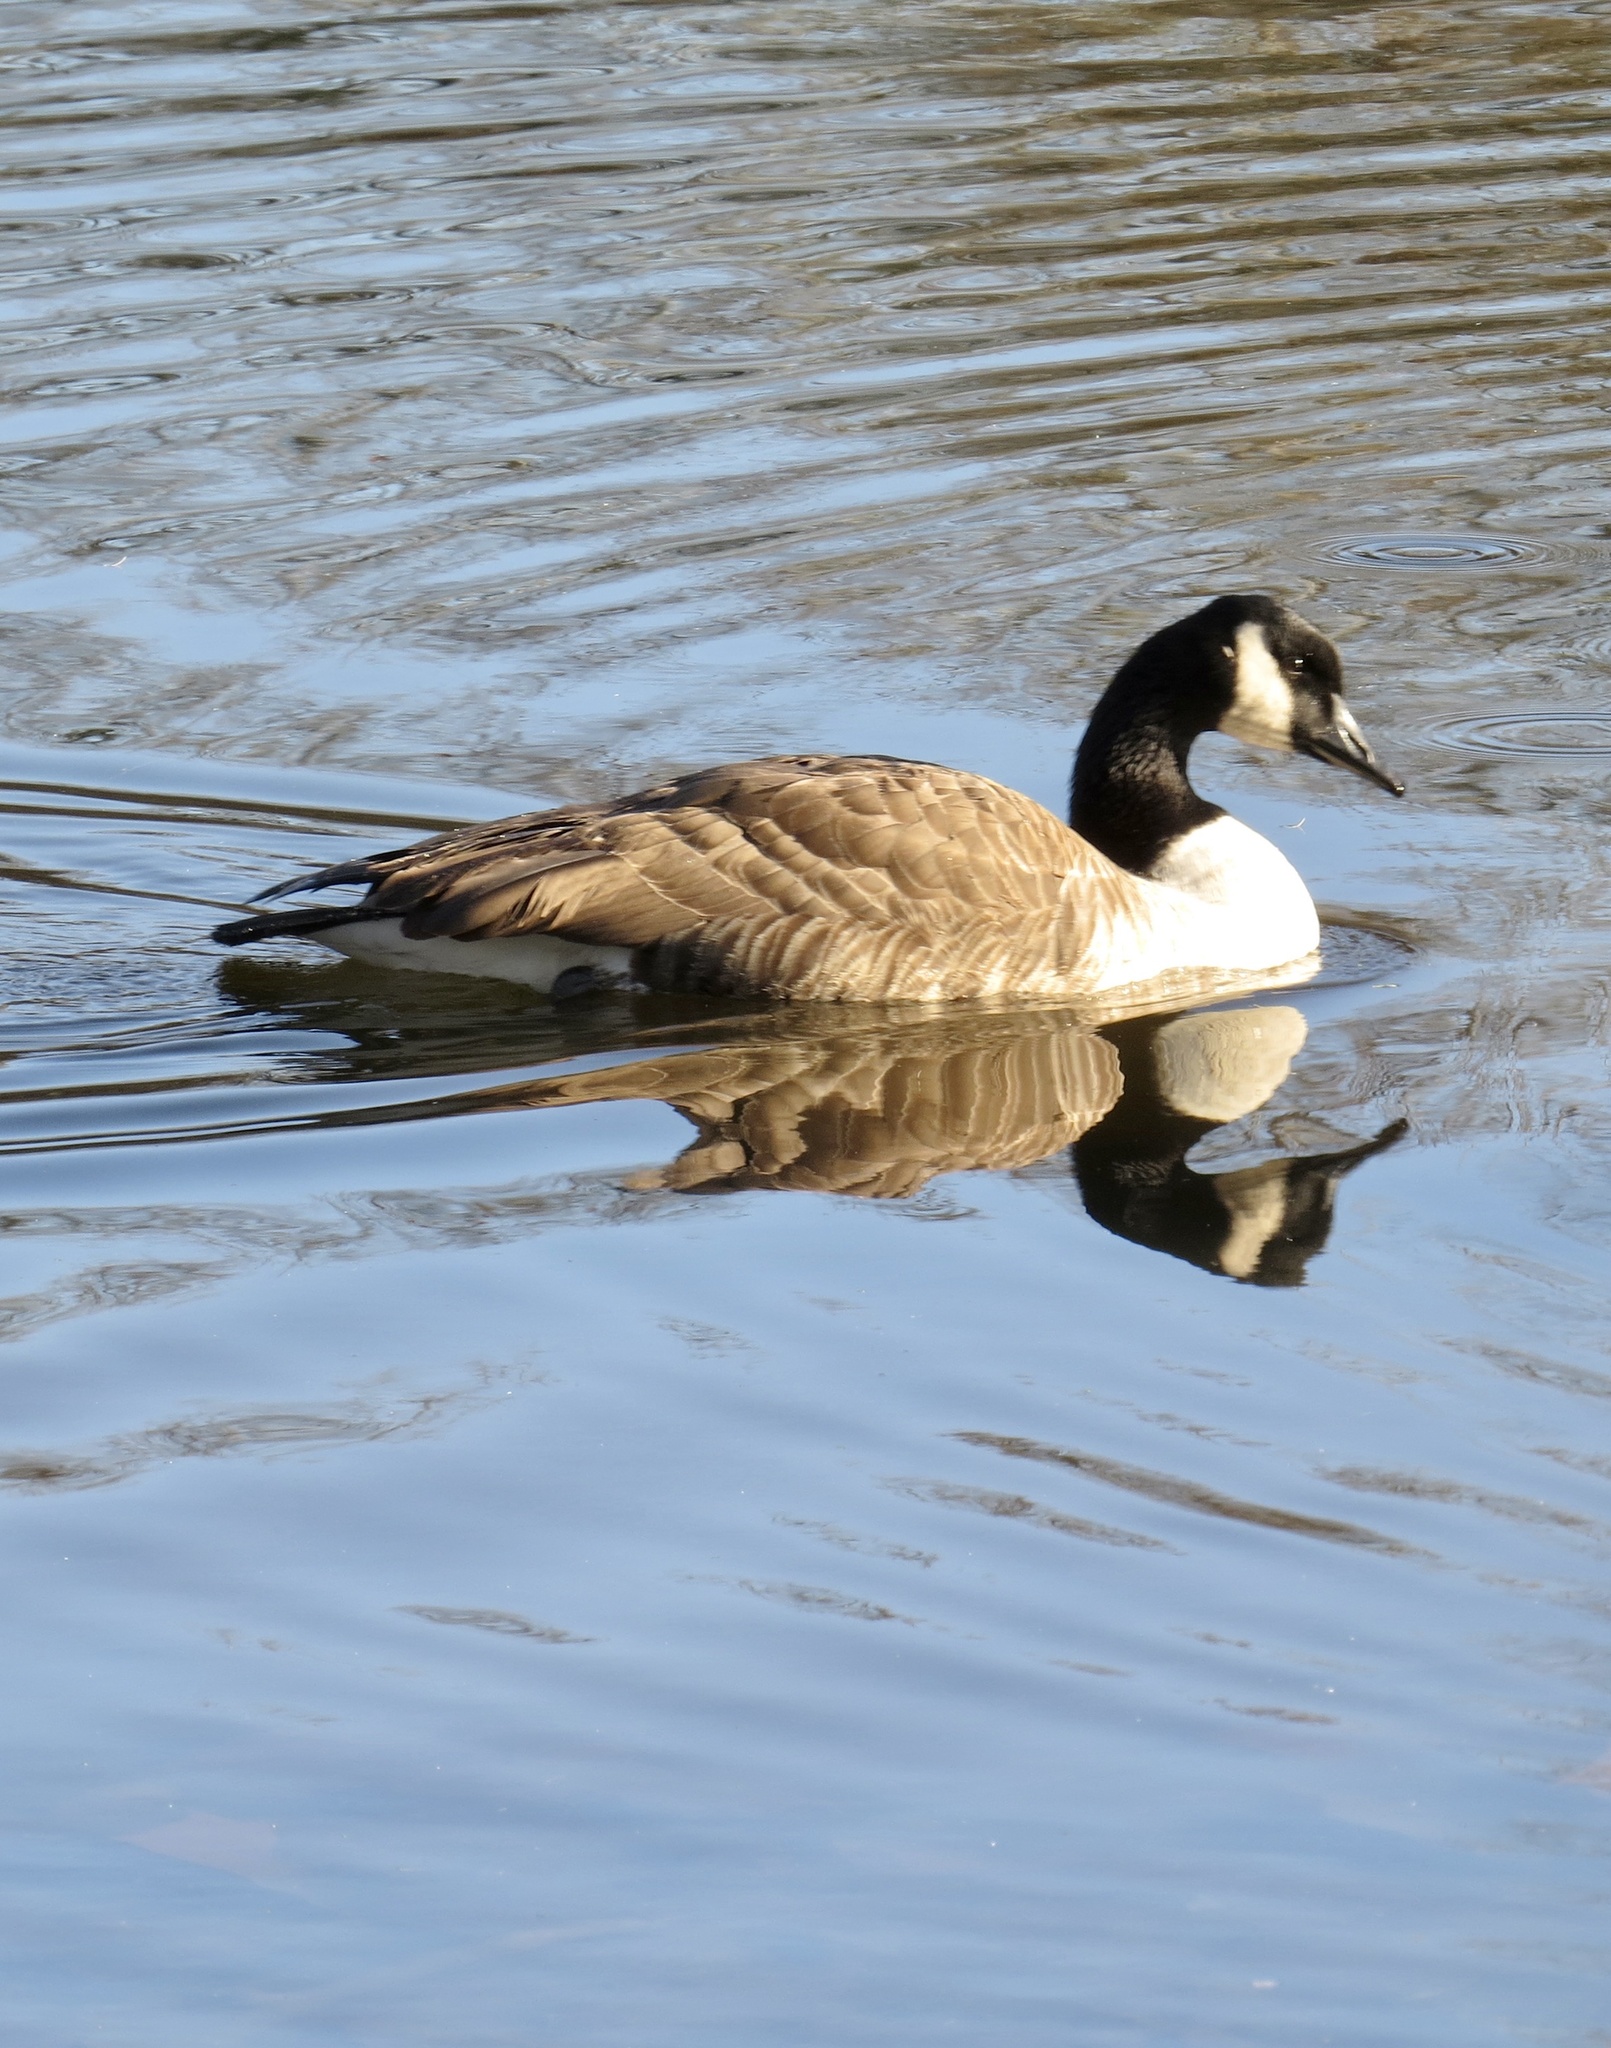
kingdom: Animalia
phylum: Chordata
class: Aves
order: Anseriformes
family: Anatidae
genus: Branta
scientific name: Branta canadensis
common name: Canada goose
